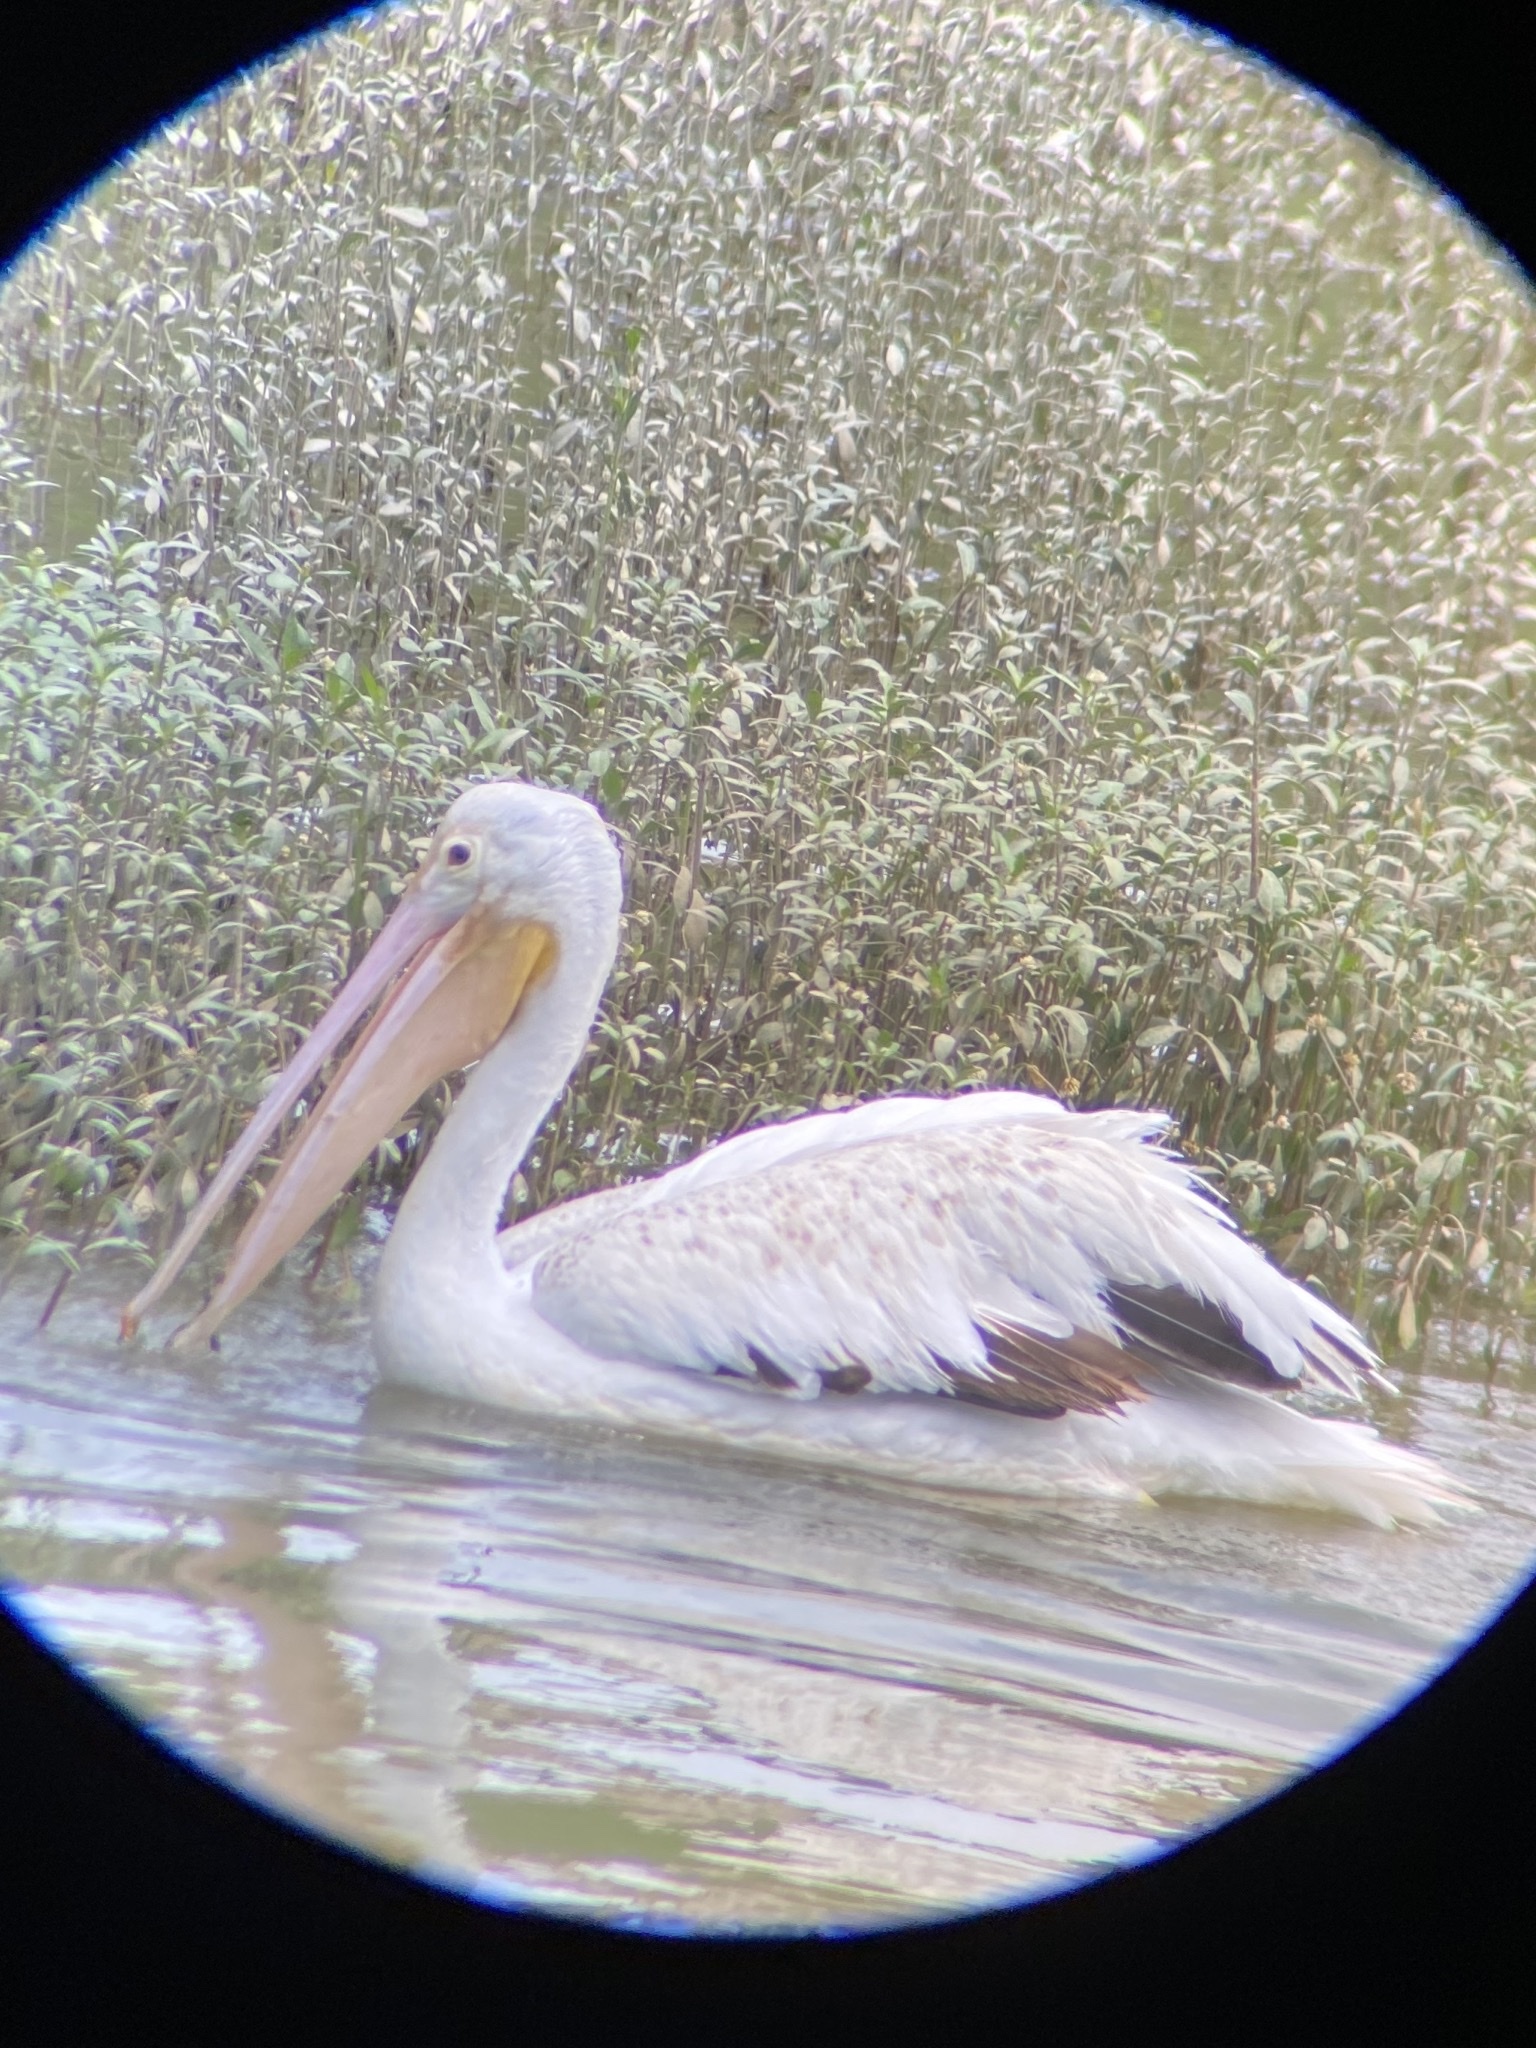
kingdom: Animalia
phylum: Chordata
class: Aves
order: Pelecaniformes
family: Pelecanidae
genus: Pelecanus
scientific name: Pelecanus erythrorhynchos
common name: American white pelican
